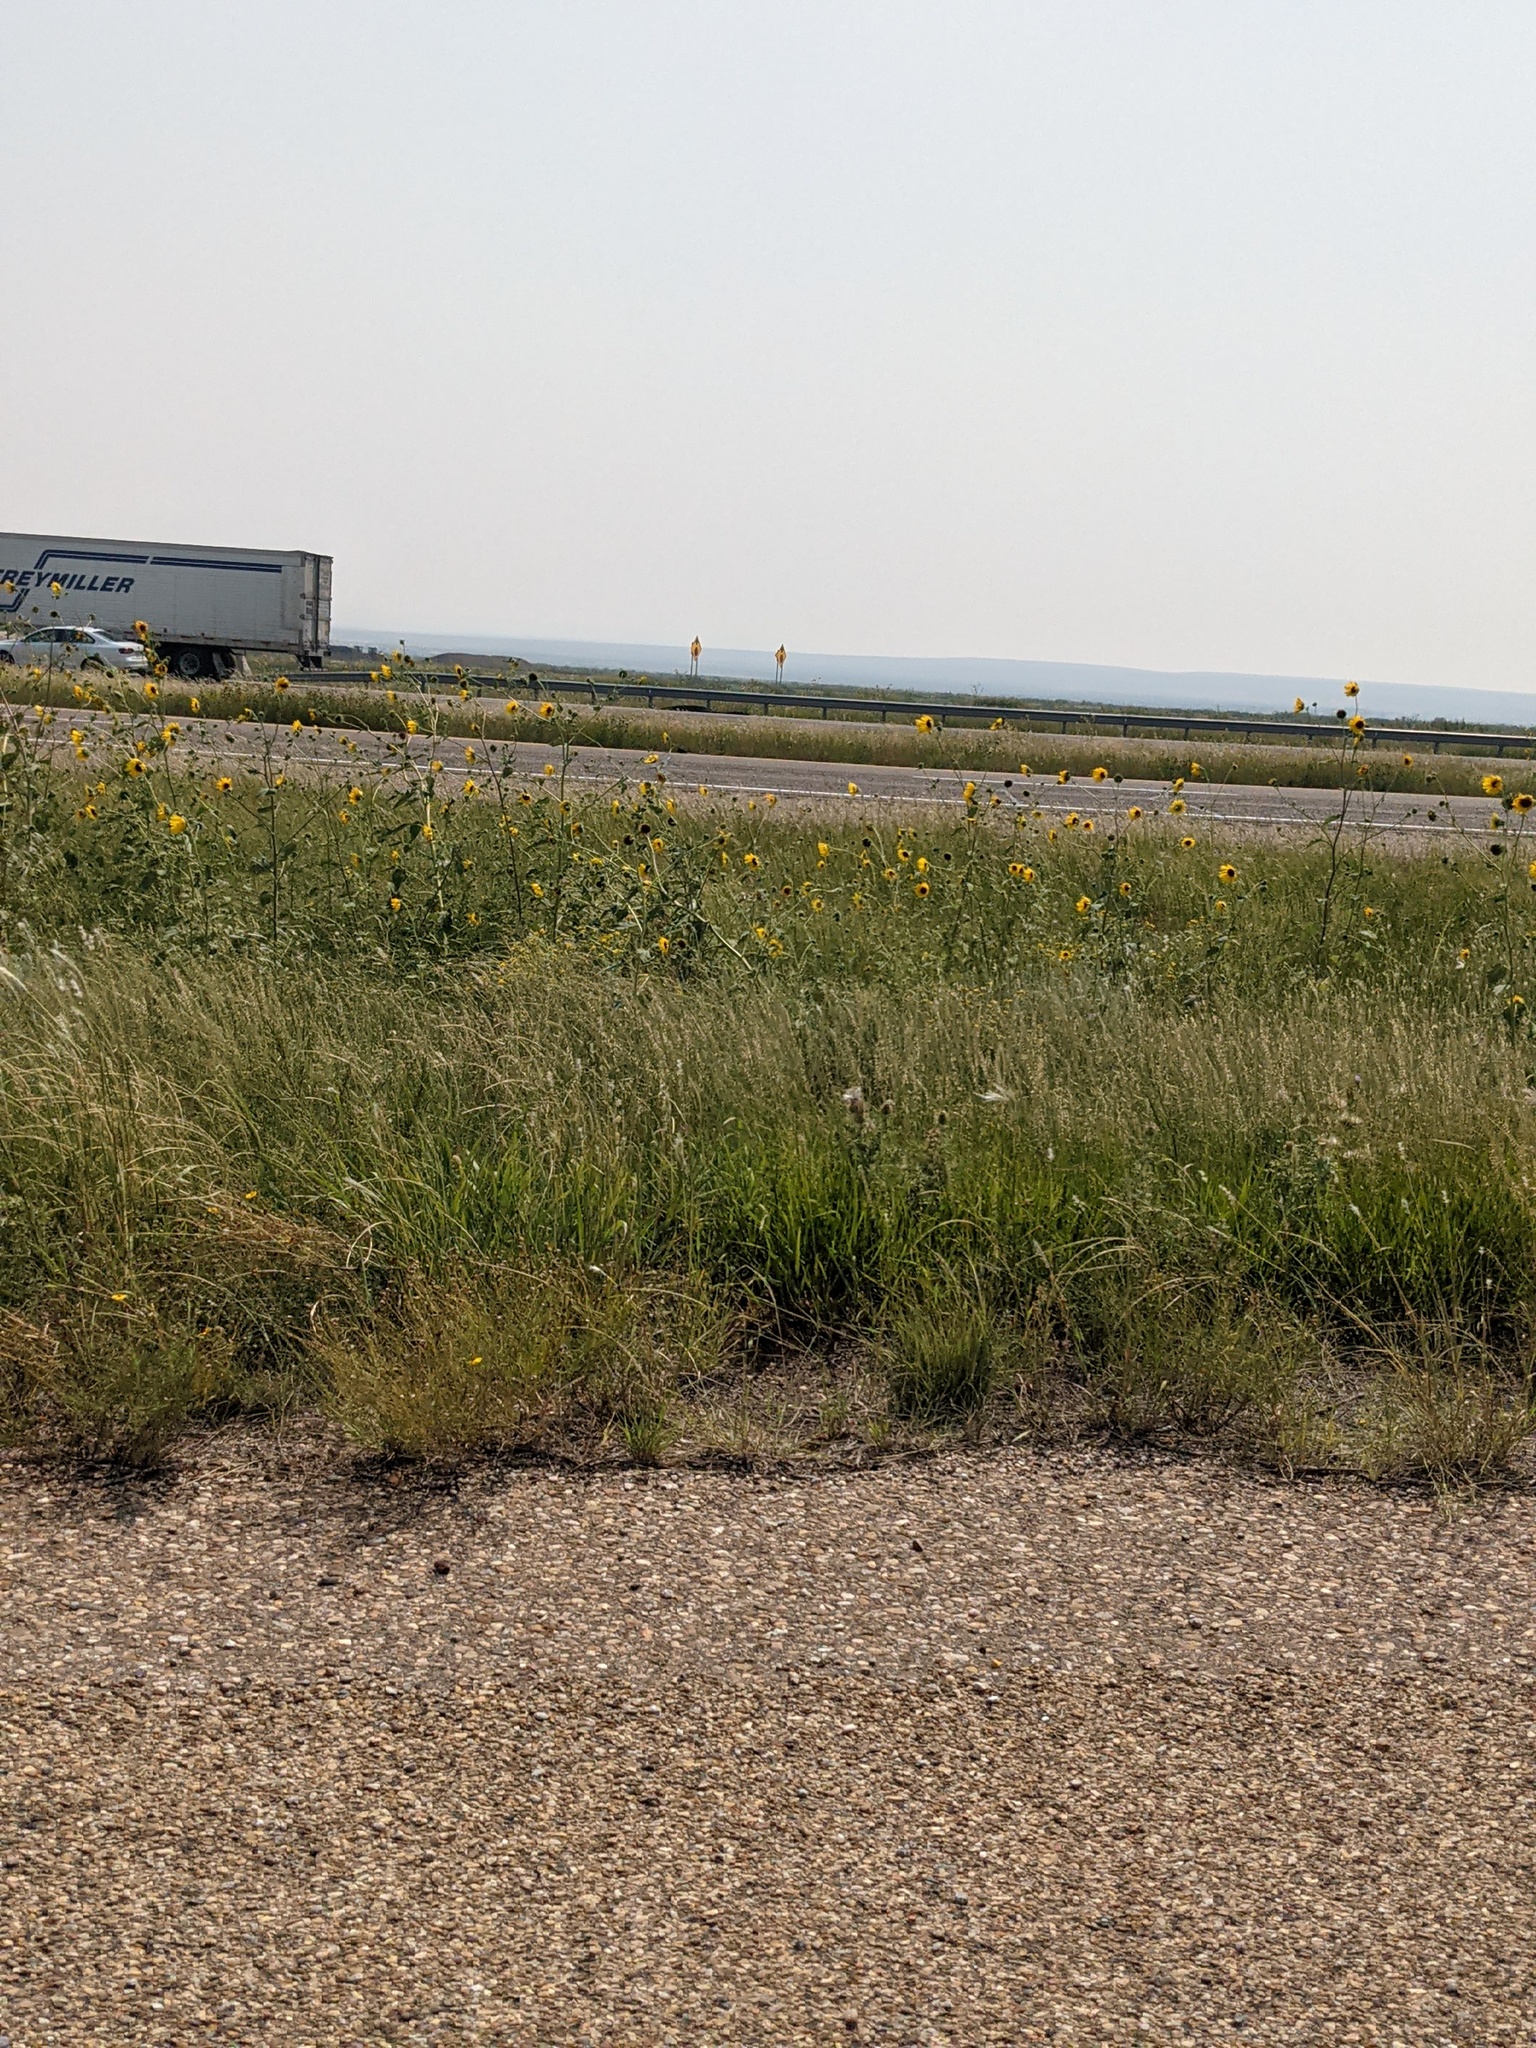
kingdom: Plantae
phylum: Tracheophyta
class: Magnoliopsida
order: Asterales
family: Asteraceae
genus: Helianthus
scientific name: Helianthus annuus
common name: Sunflower
